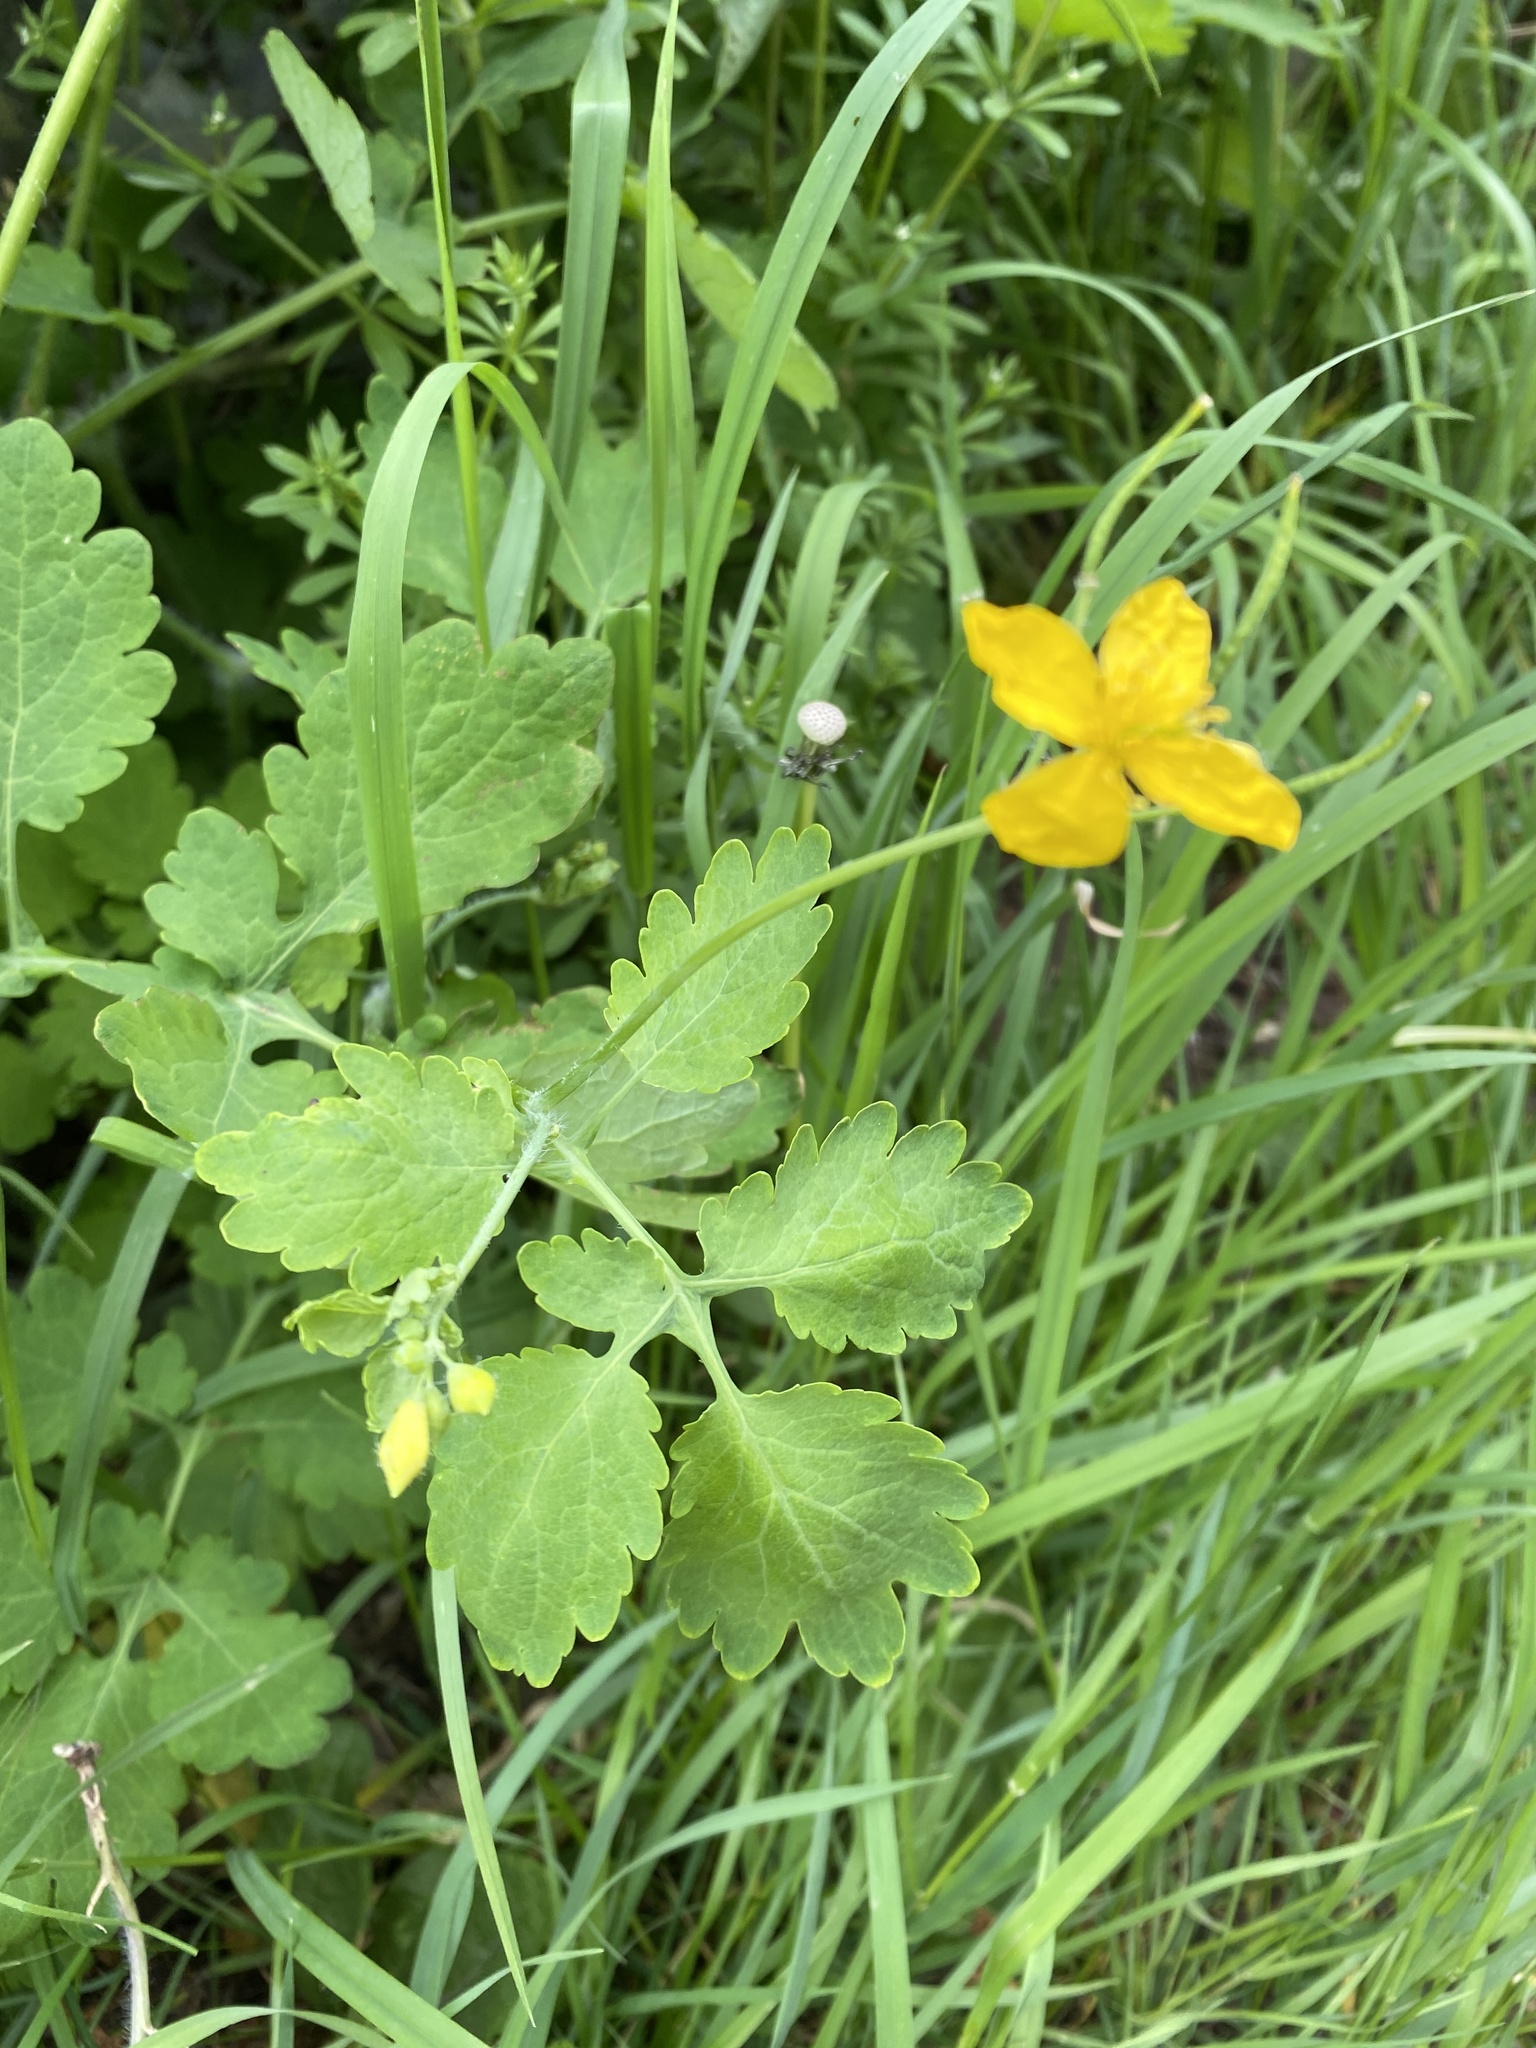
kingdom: Plantae
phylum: Tracheophyta
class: Magnoliopsida
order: Ranunculales
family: Papaveraceae
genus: Chelidonium
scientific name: Chelidonium majus
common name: Greater celandine
